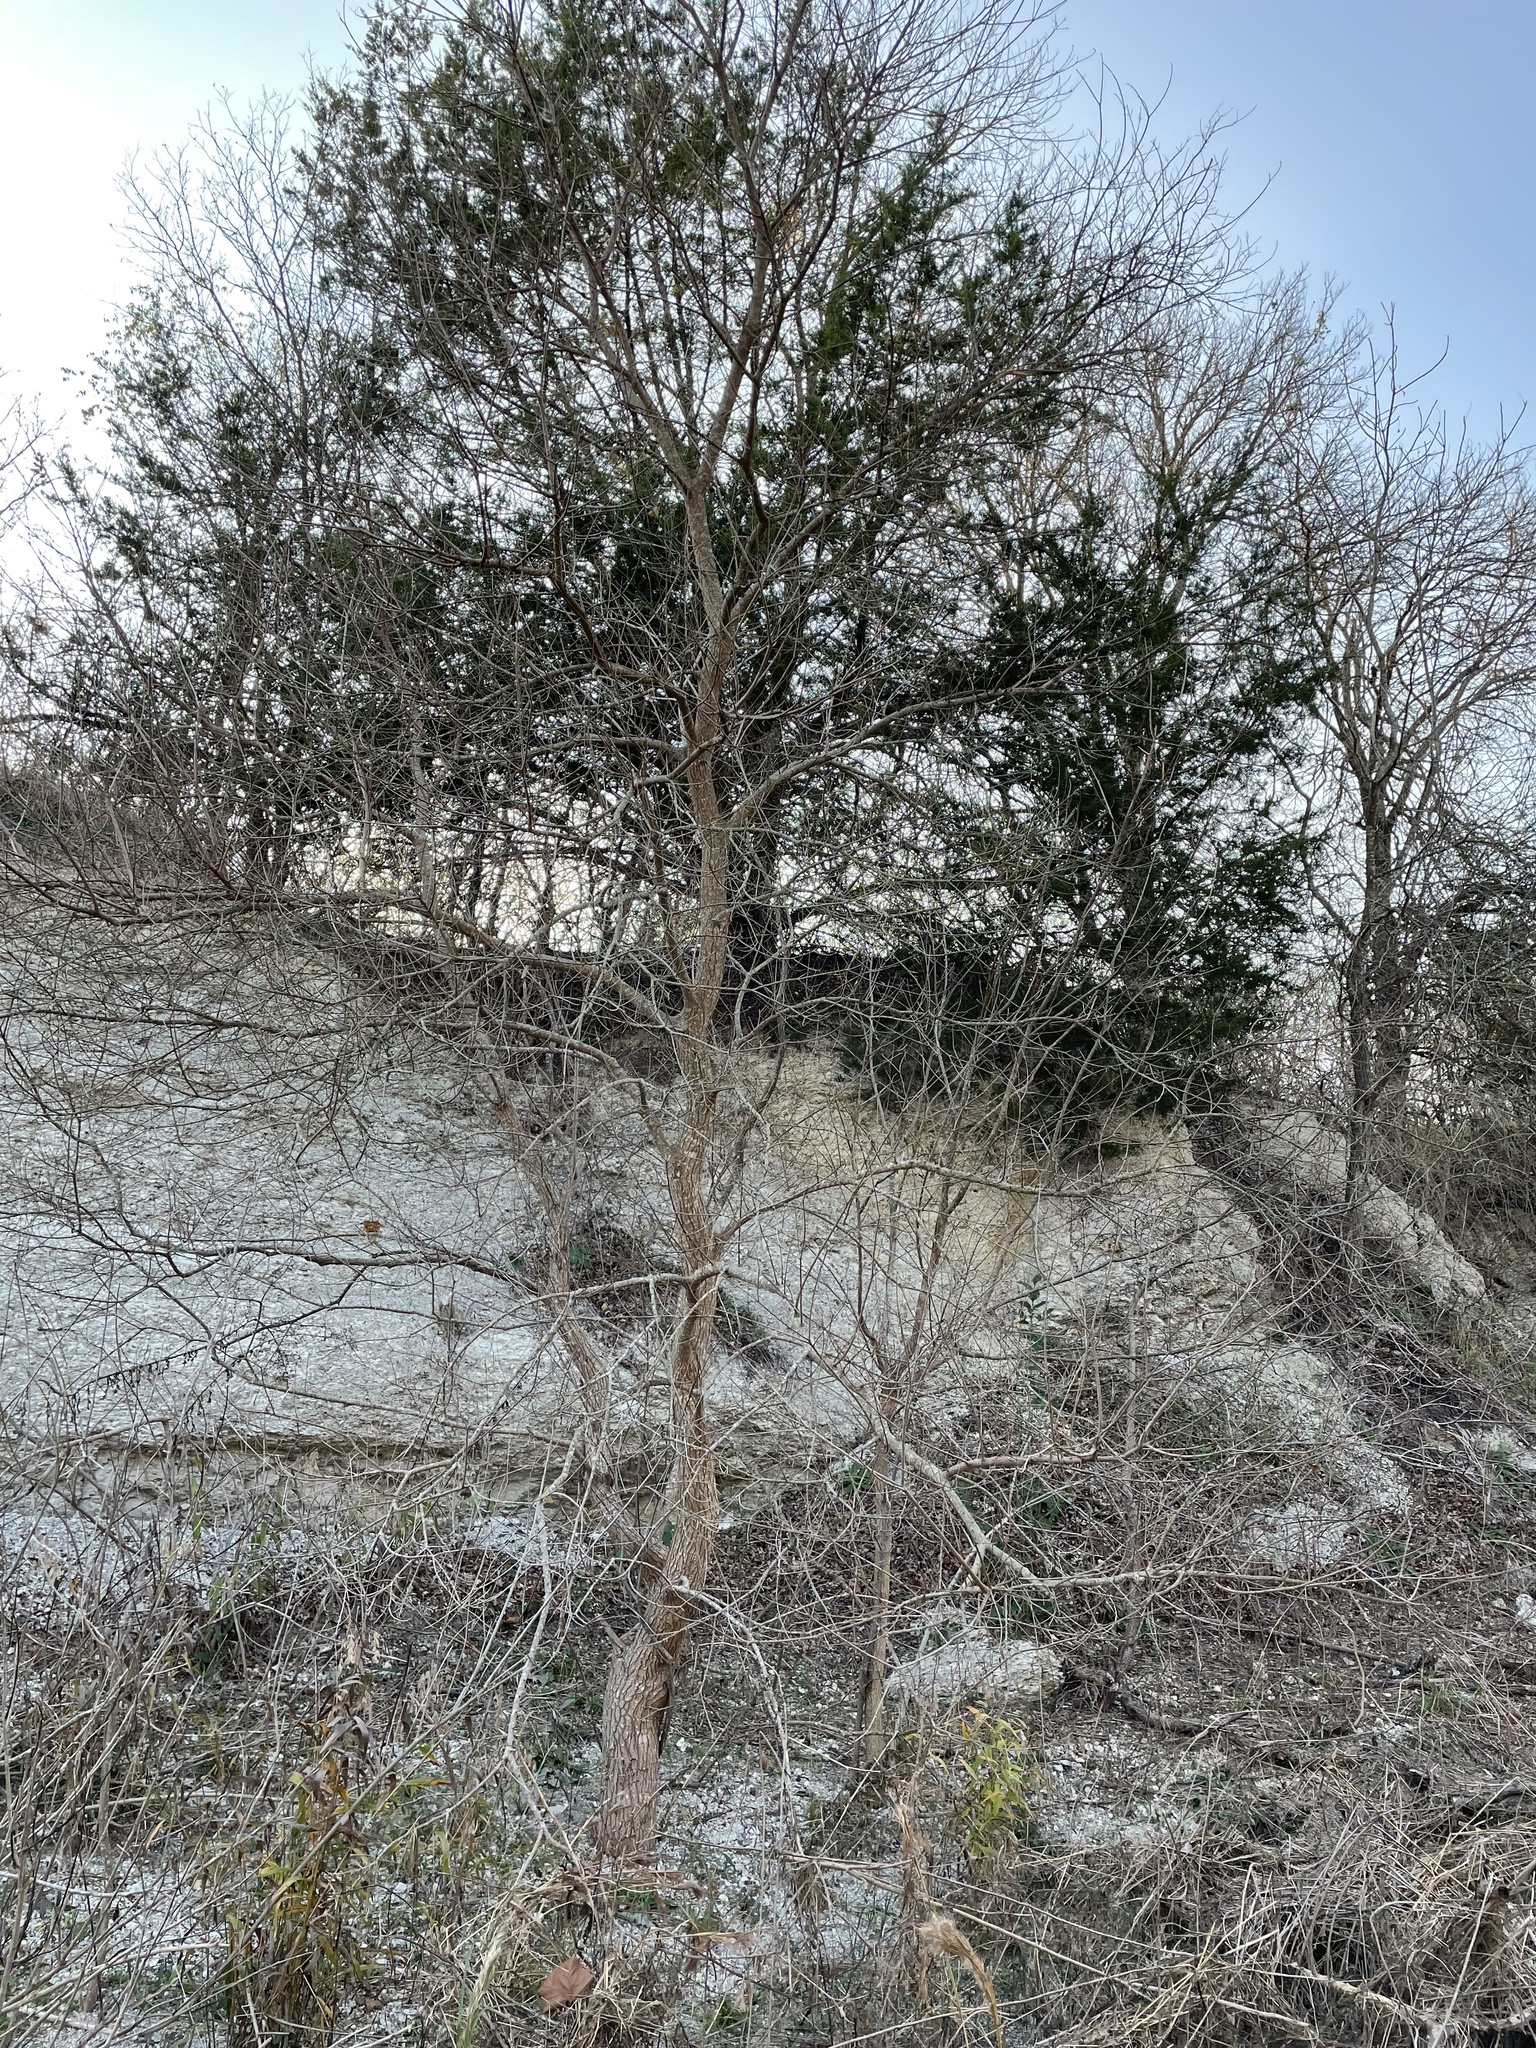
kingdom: Plantae
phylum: Tracheophyta
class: Magnoliopsida
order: Malpighiales
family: Euphorbiaceae
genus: Triadica
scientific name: Triadica sebifera
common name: Chinese tallow
